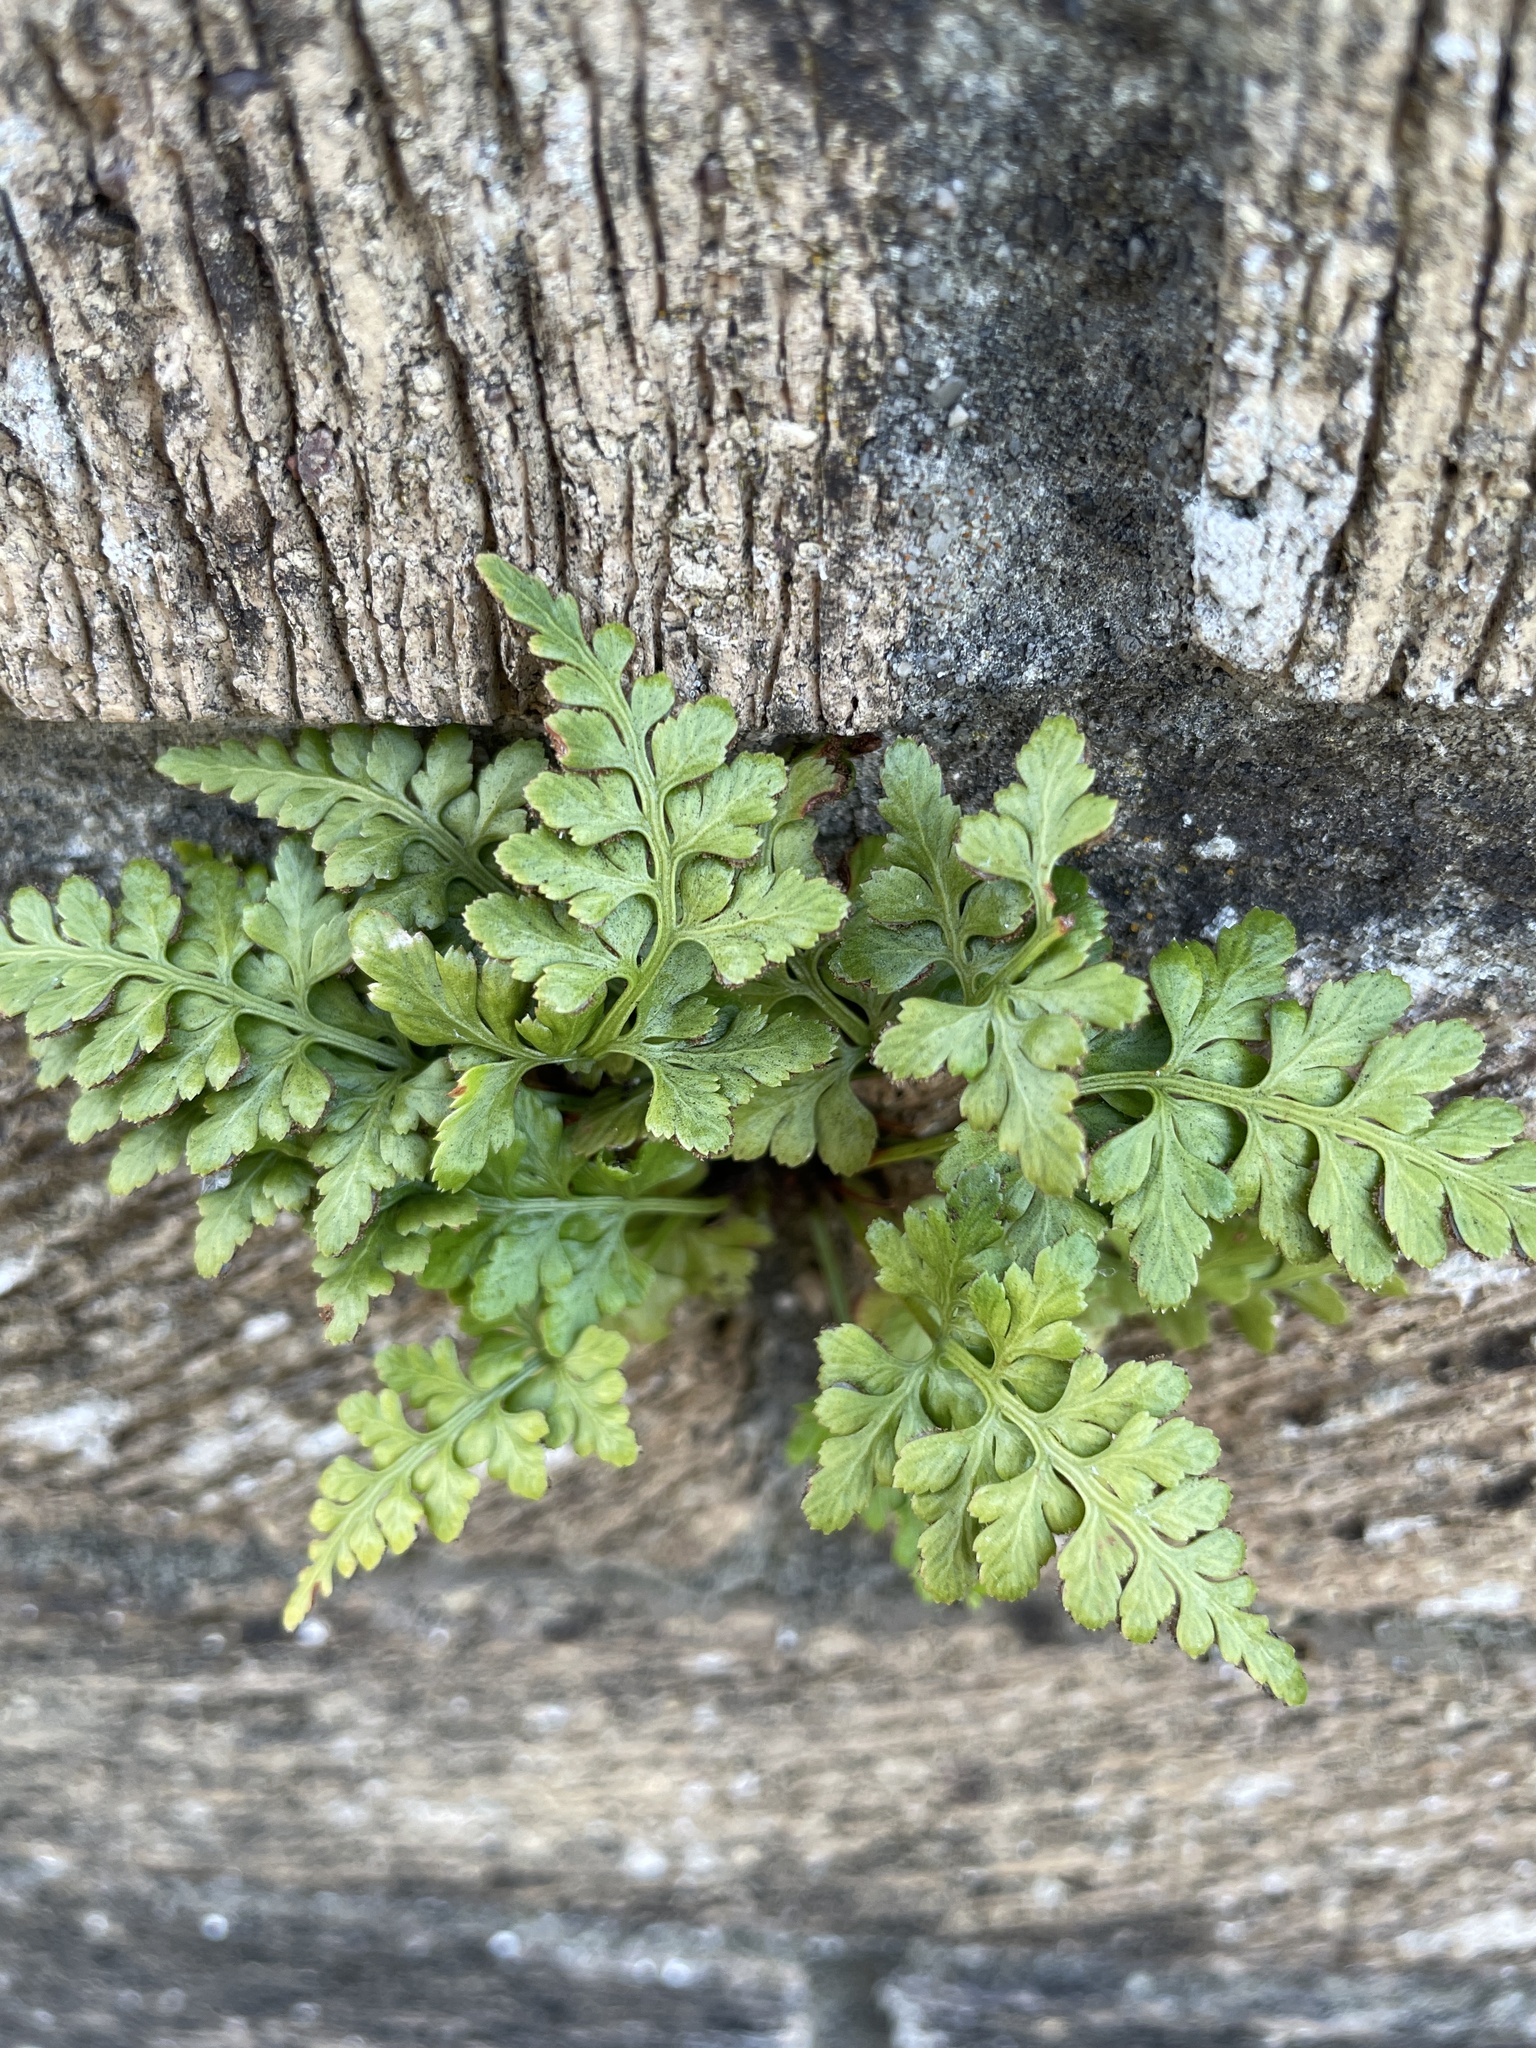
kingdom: Plantae
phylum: Tracheophyta
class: Polypodiopsida
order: Polypodiales
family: Aspleniaceae
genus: Asplenium
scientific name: Asplenium adiantum-nigrum
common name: Black spleenwort
